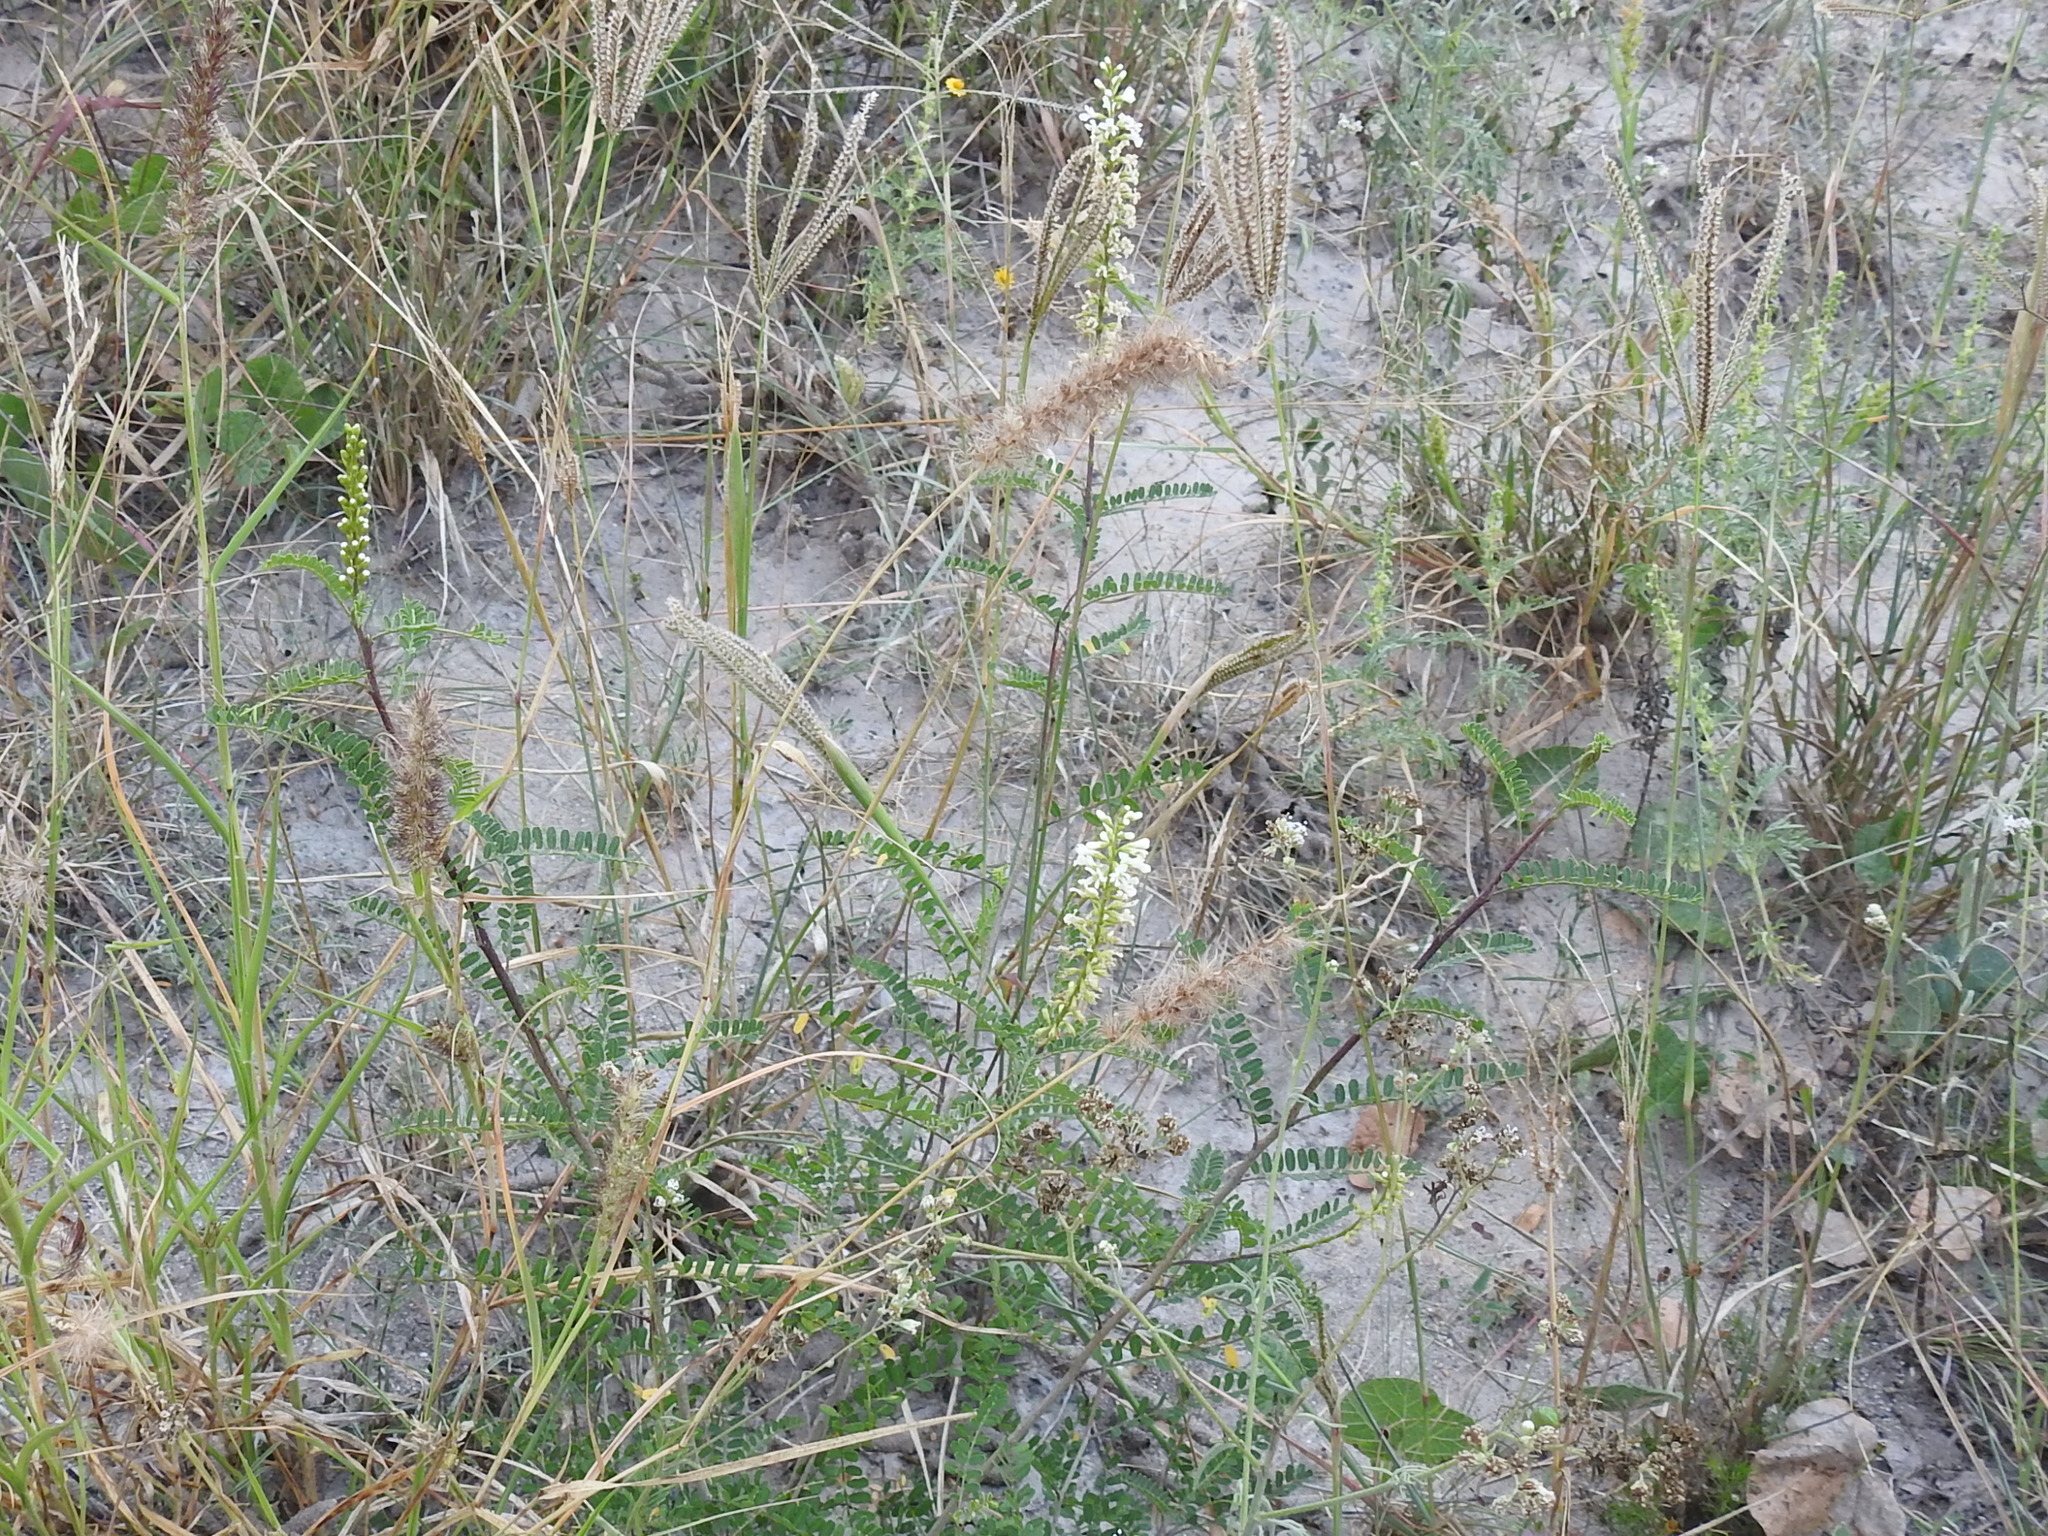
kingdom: Plantae
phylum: Tracheophyta
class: Magnoliopsida
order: Fabales
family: Fabaceae
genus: Eysenhardtia
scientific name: Eysenhardtia texana
